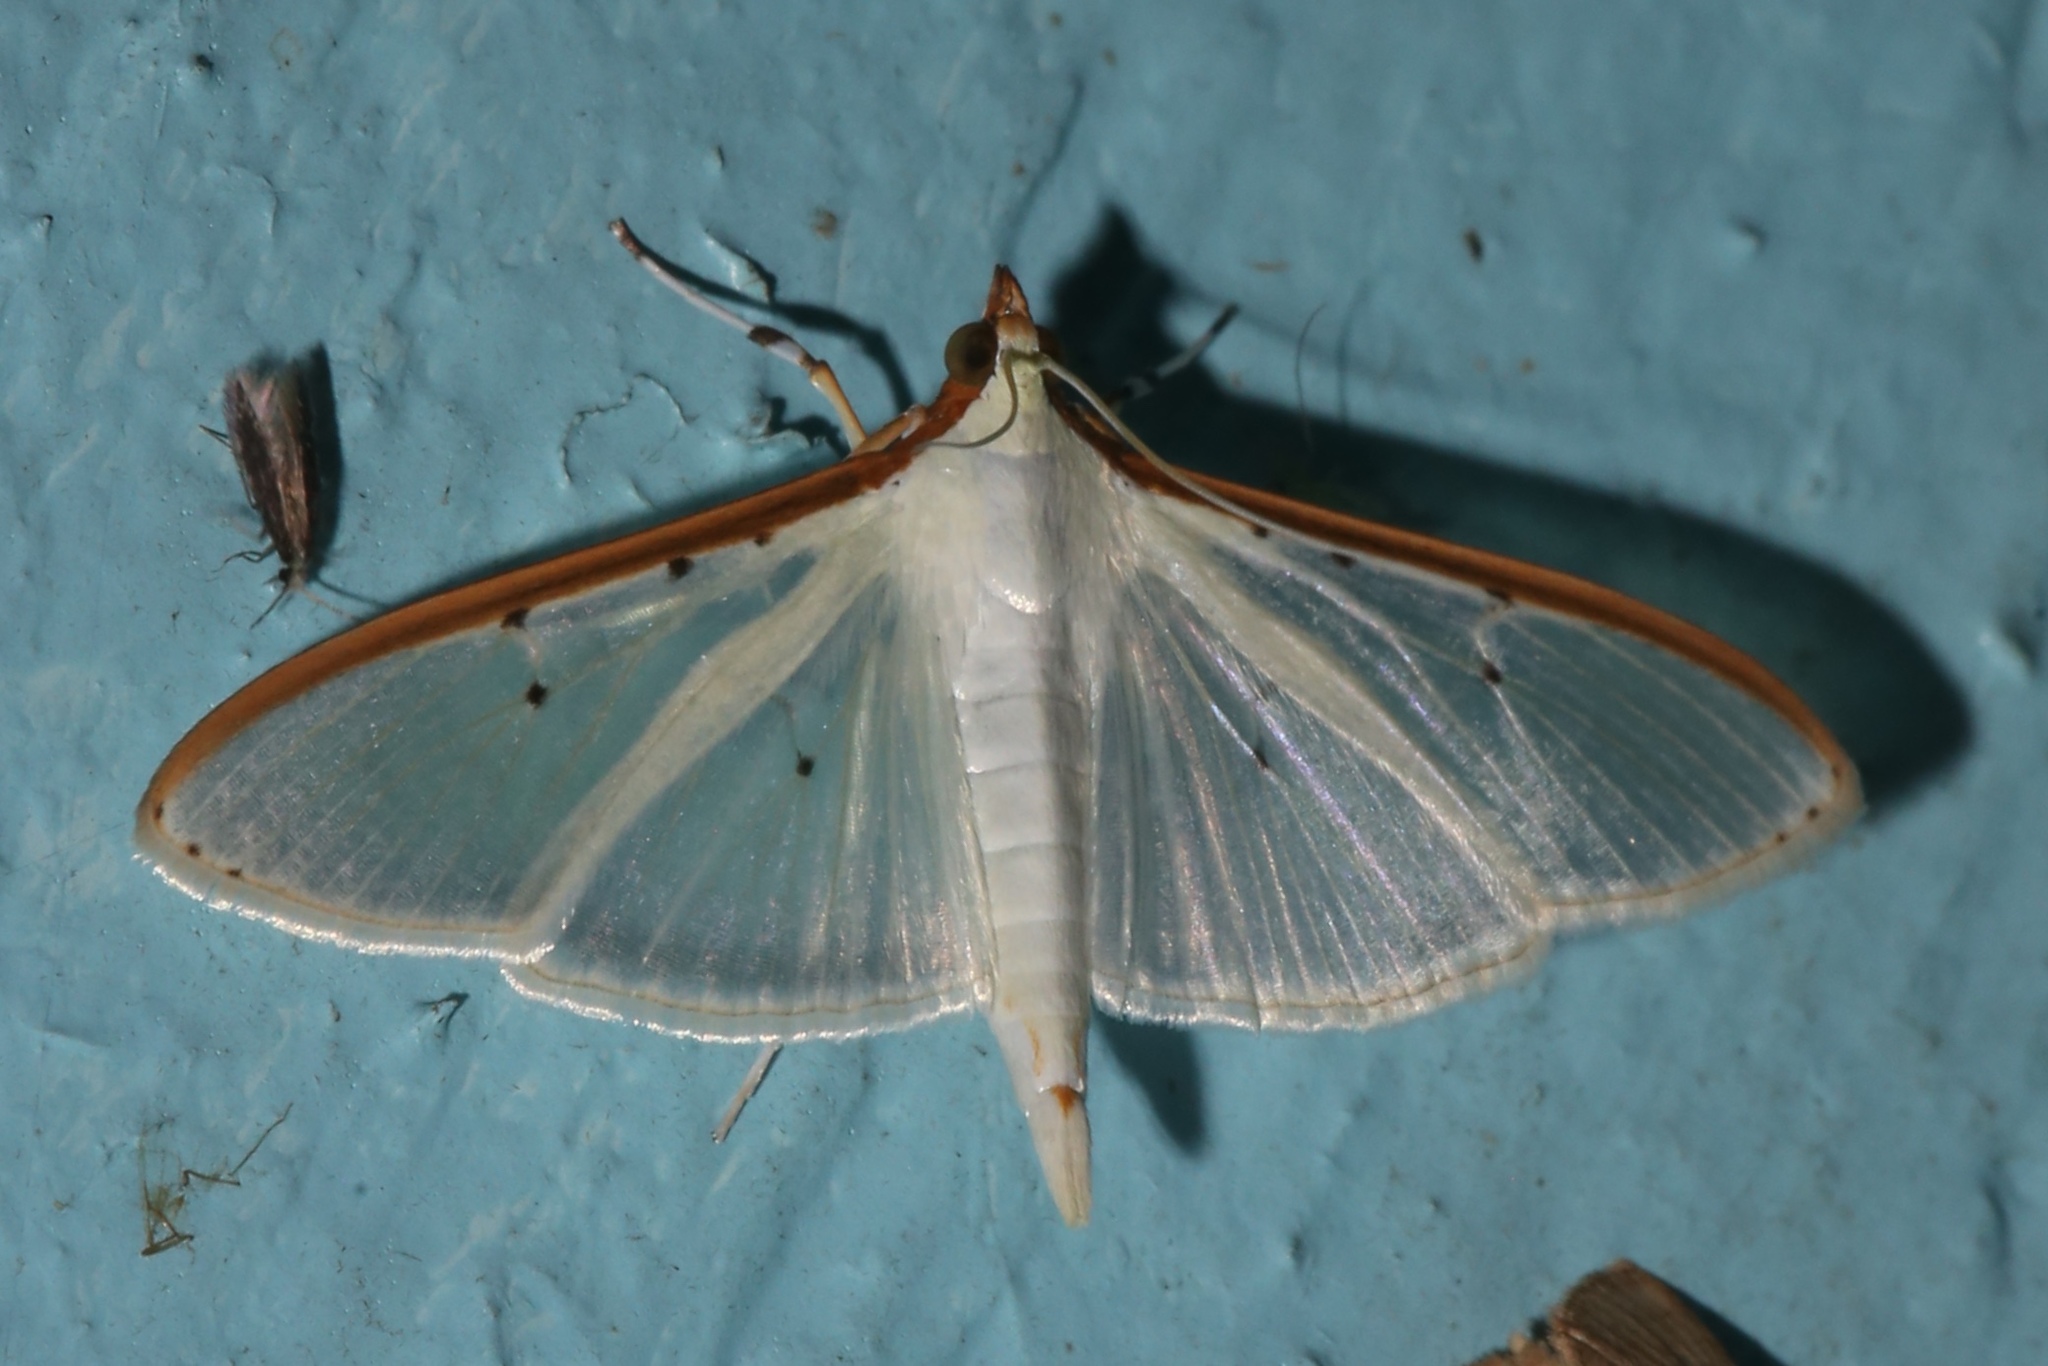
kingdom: Animalia
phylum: Arthropoda
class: Insecta
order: Lepidoptera
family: Crambidae
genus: Palpita
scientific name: Palpita quadristigmalis
